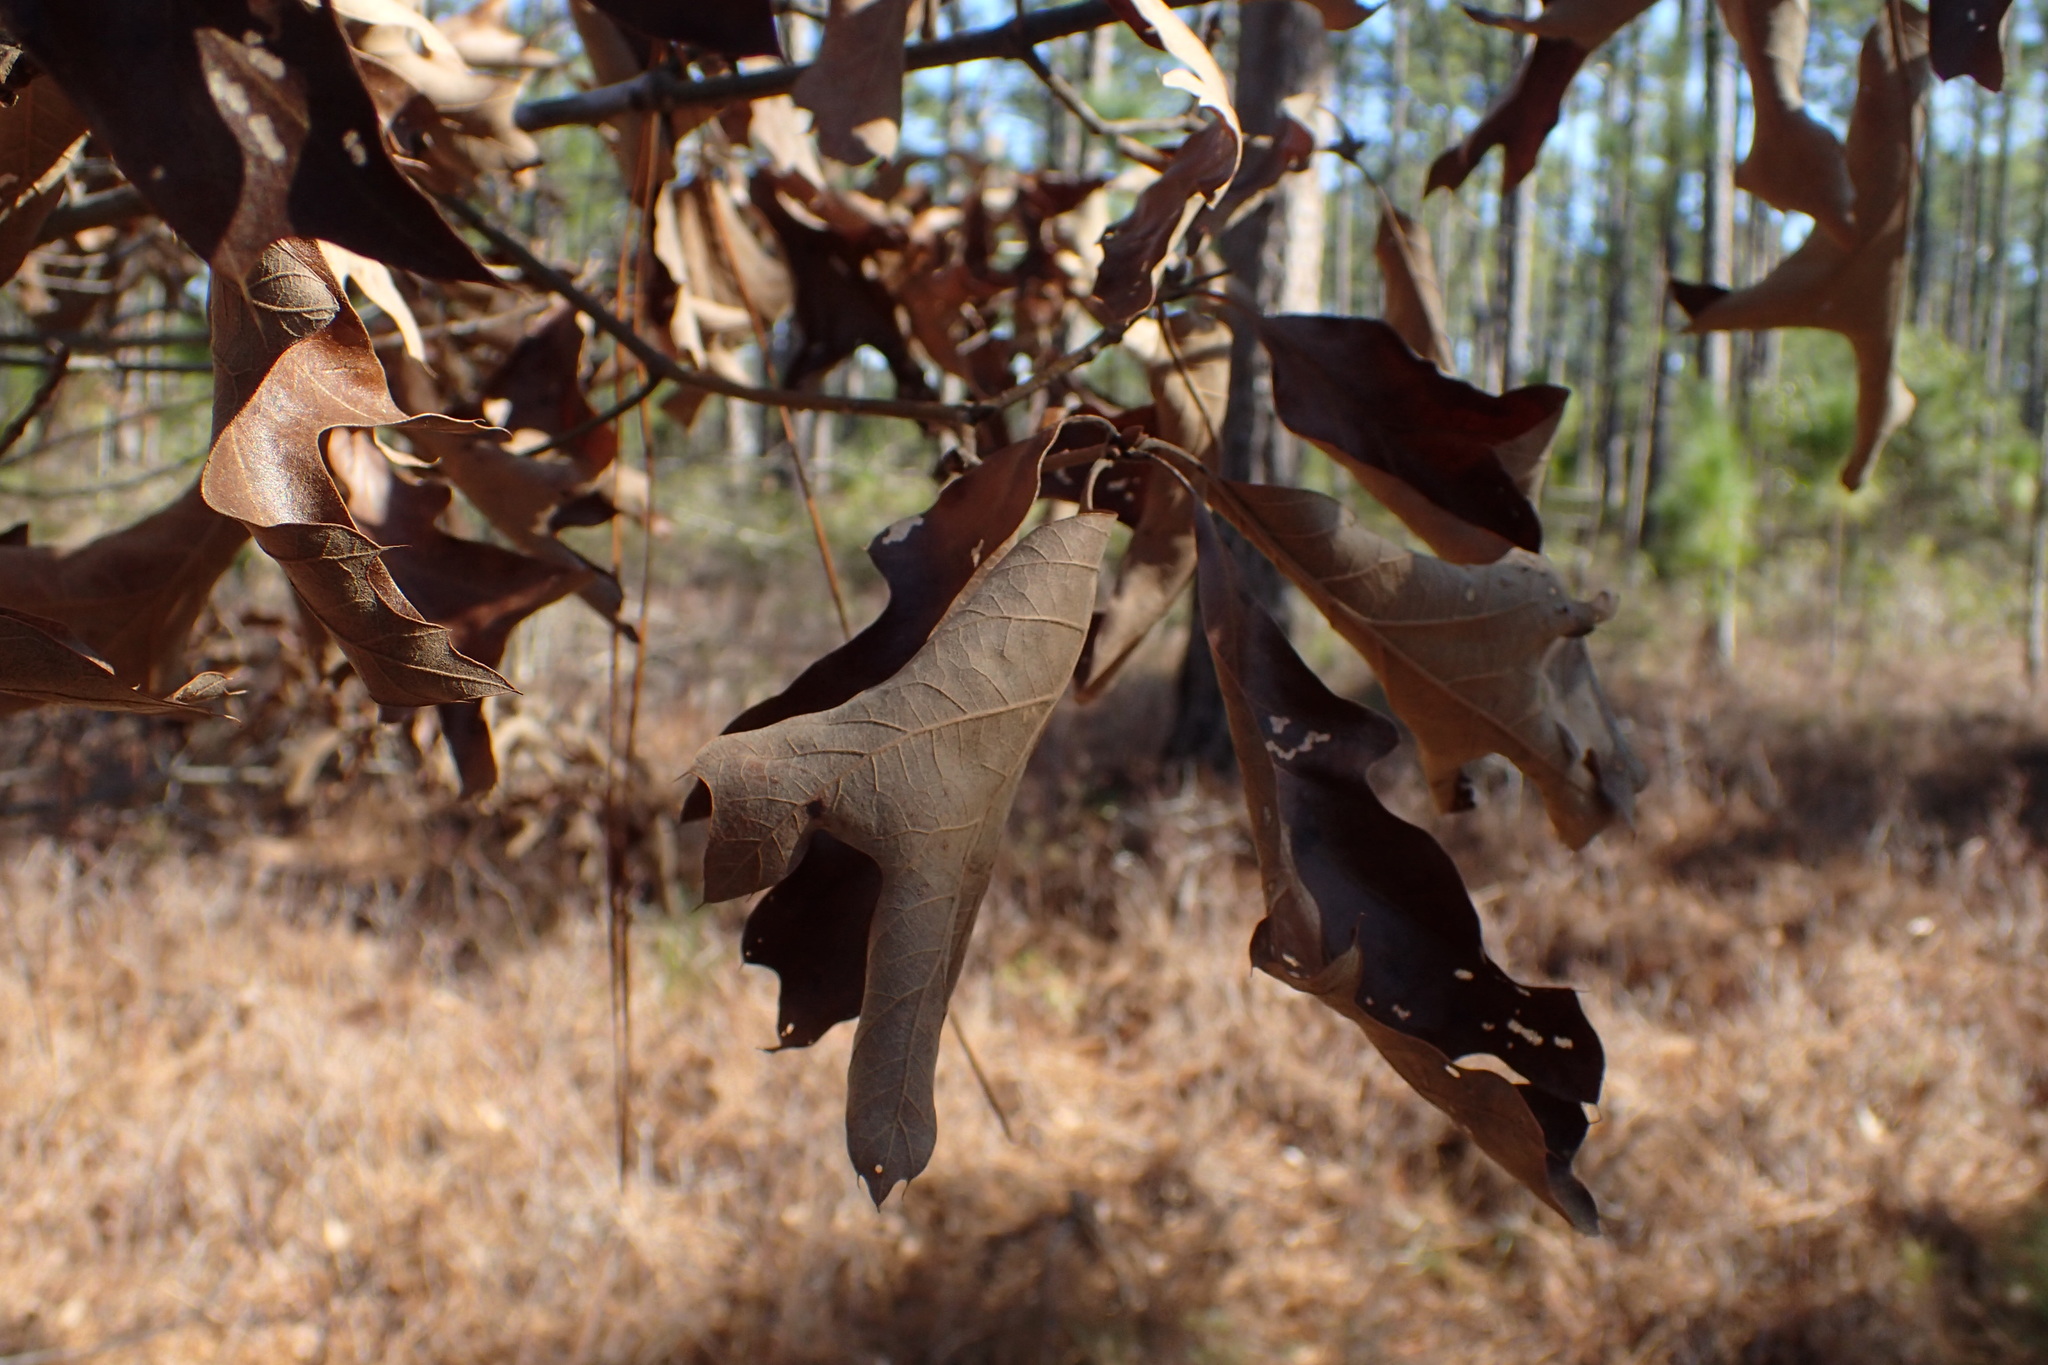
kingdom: Plantae
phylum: Tracheophyta
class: Magnoliopsida
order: Fagales
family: Fagaceae
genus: Quercus
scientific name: Quercus falcata
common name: Southern red oak
